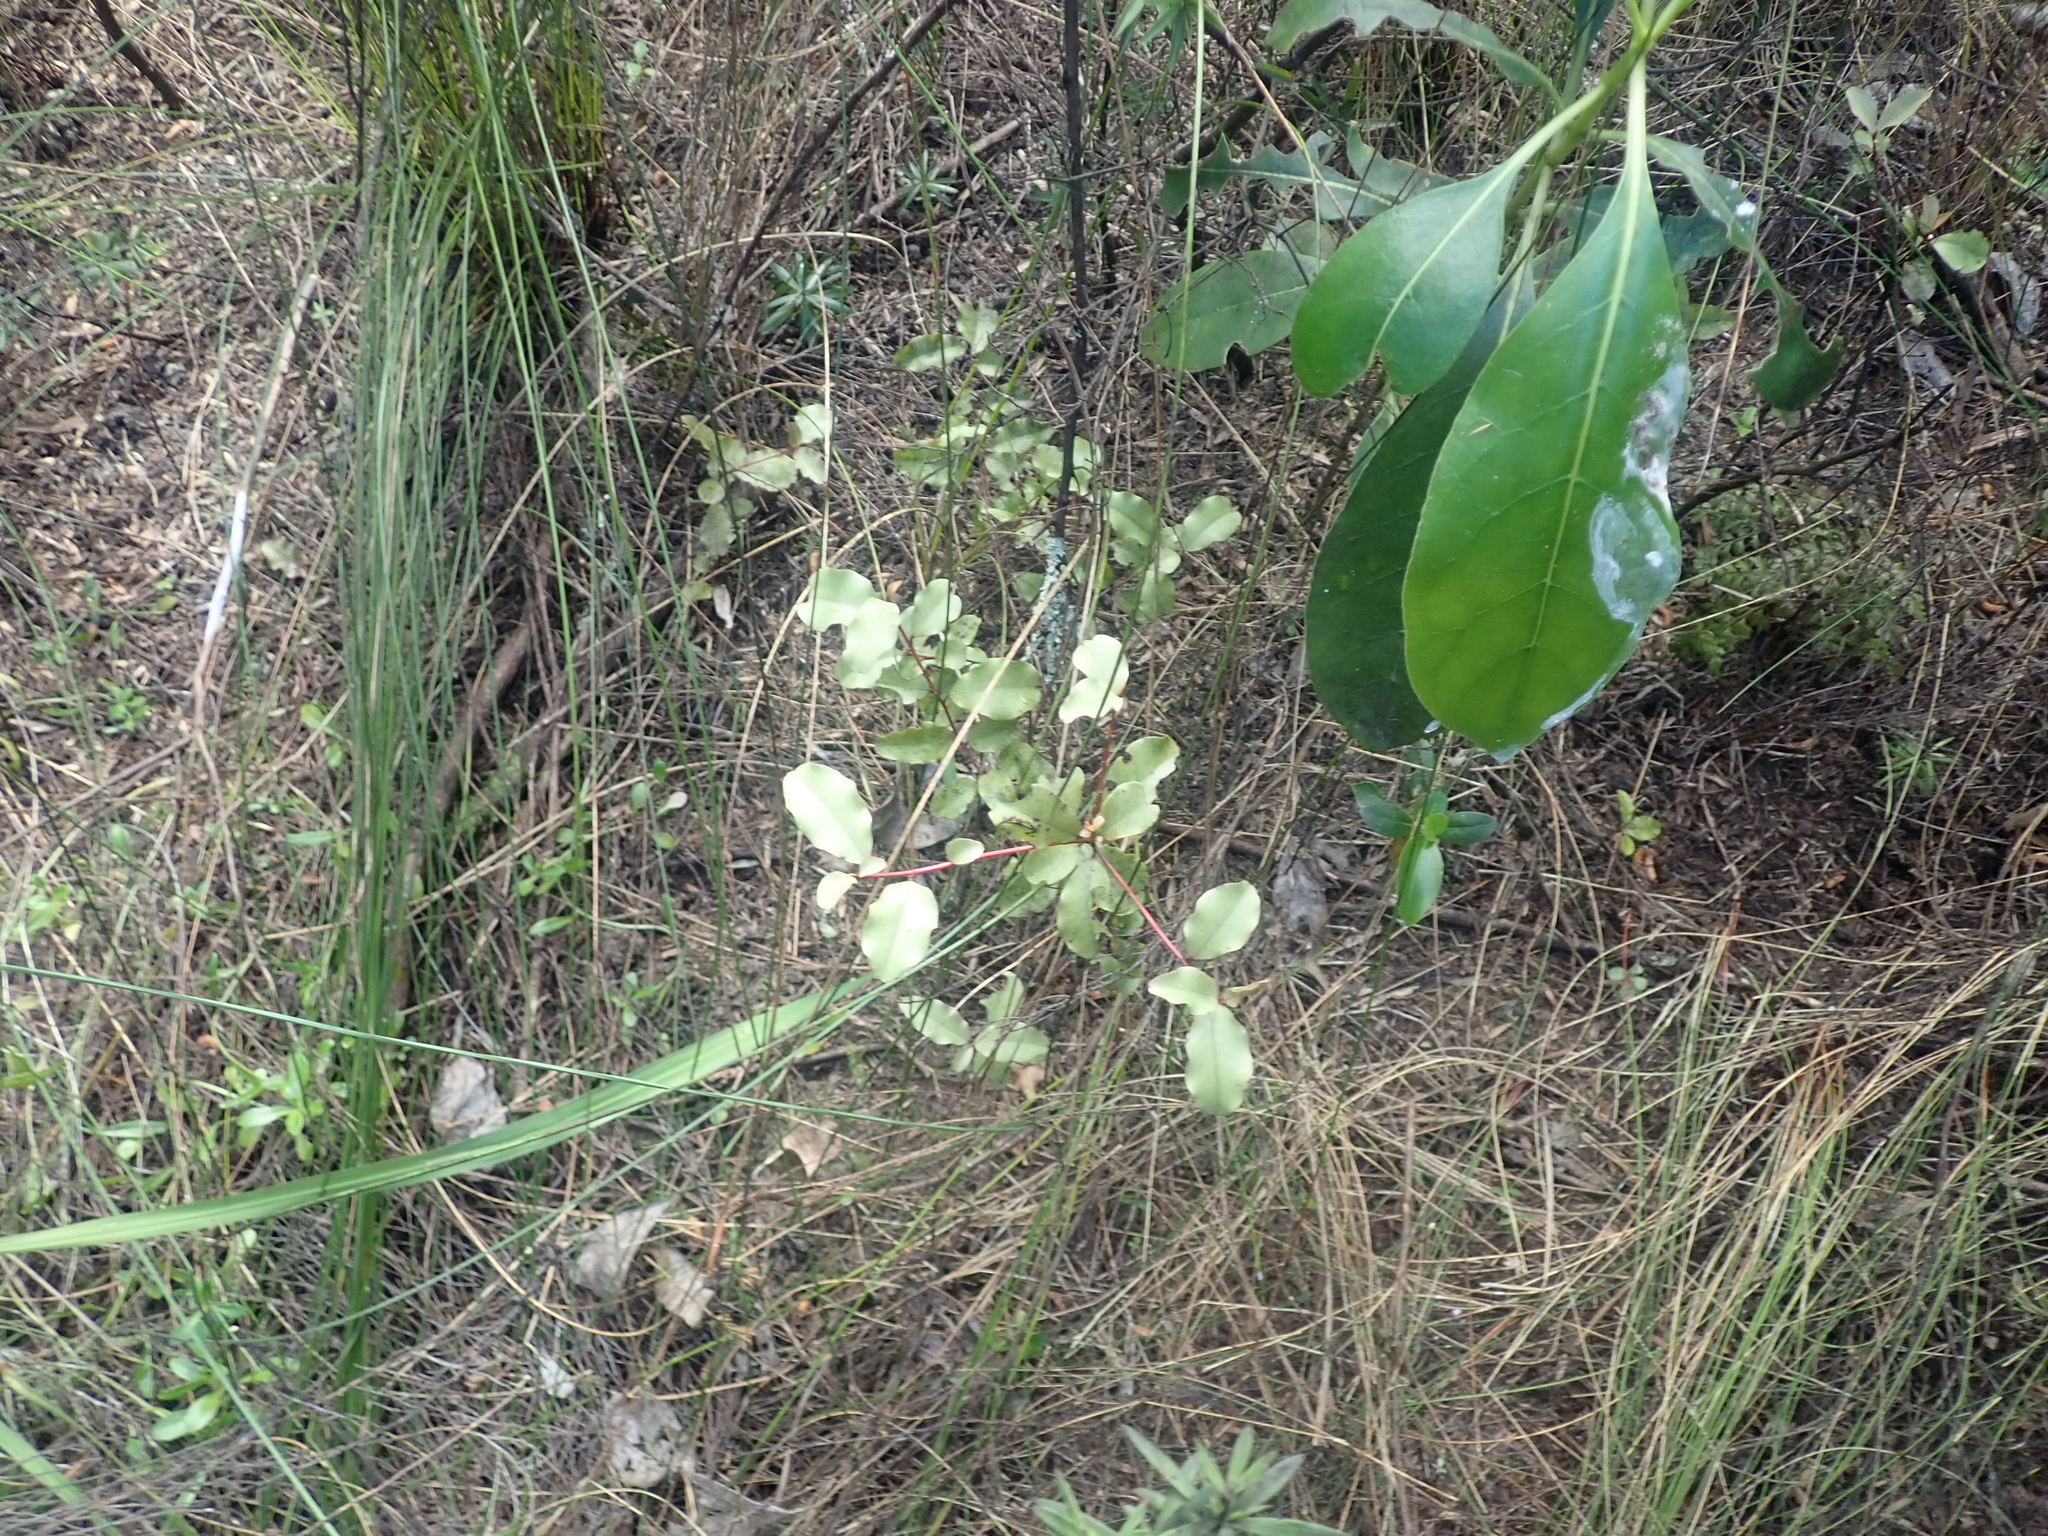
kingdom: Plantae
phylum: Tracheophyta
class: Magnoliopsida
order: Ericales
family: Primulaceae
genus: Myrsine
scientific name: Myrsine australis
